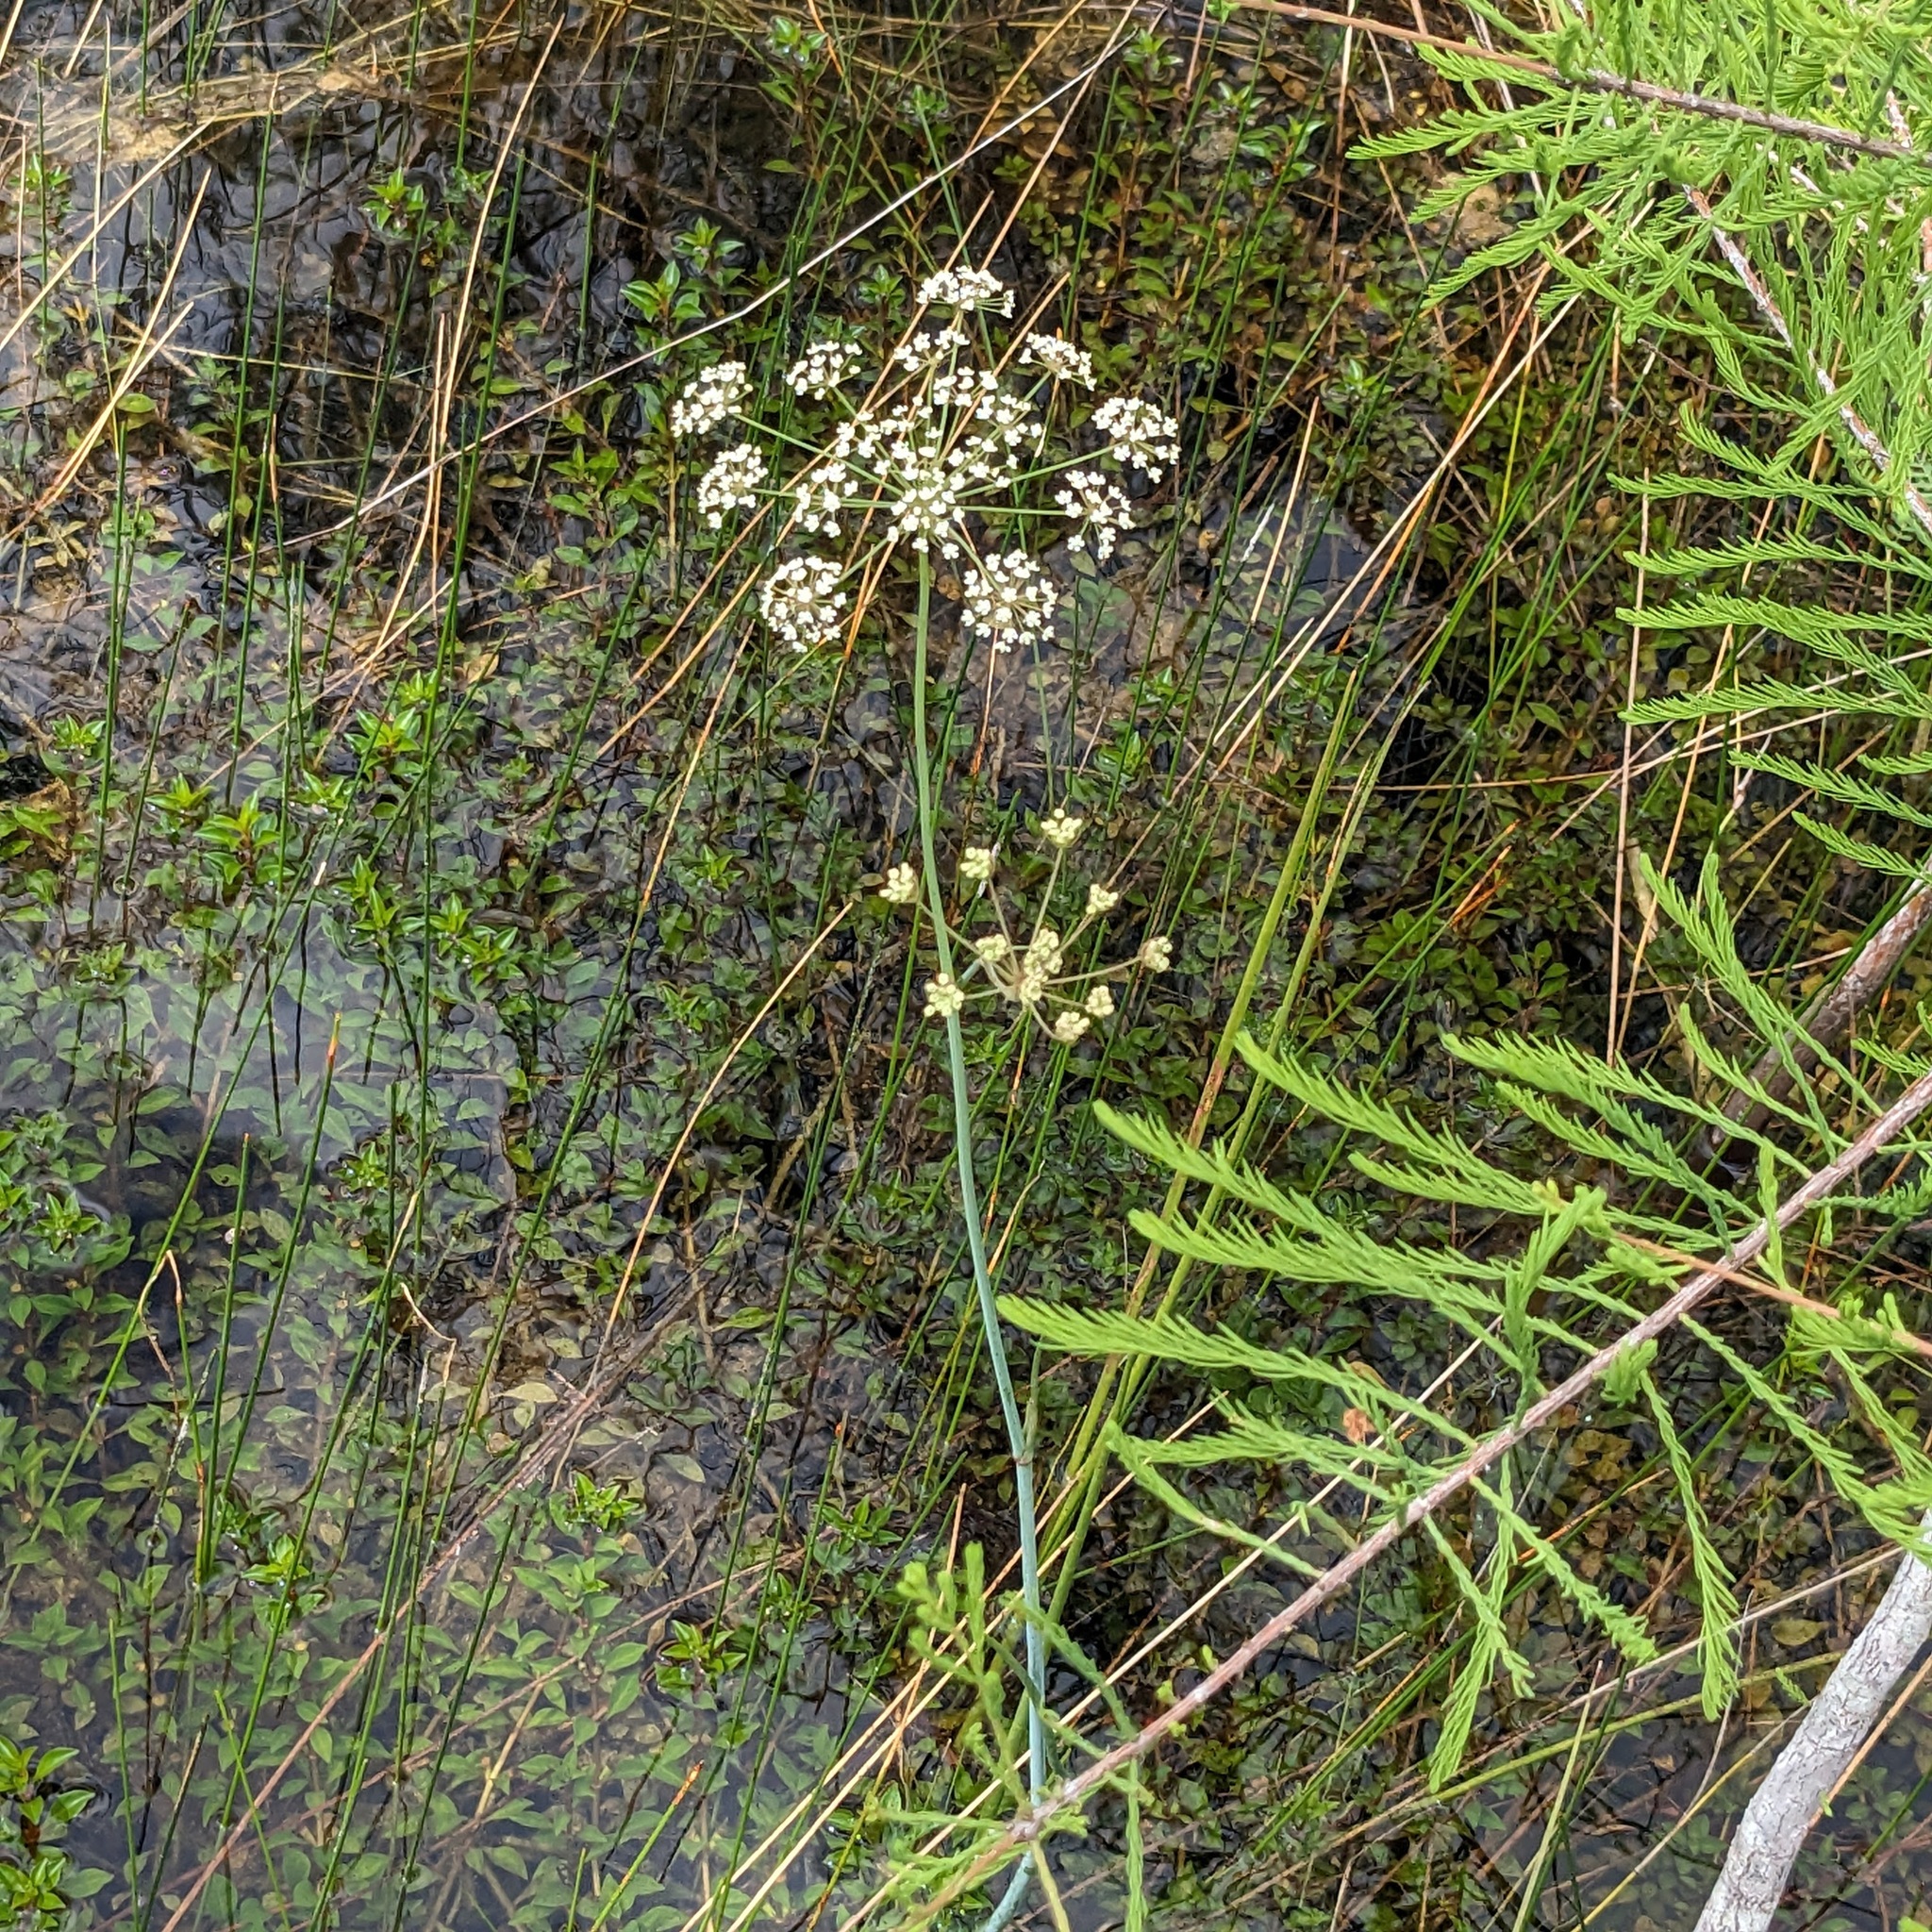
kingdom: Plantae
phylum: Tracheophyta
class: Magnoliopsida
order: Apiales
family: Apiaceae
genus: Tiedemannia
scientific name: Tiedemannia filiformis
